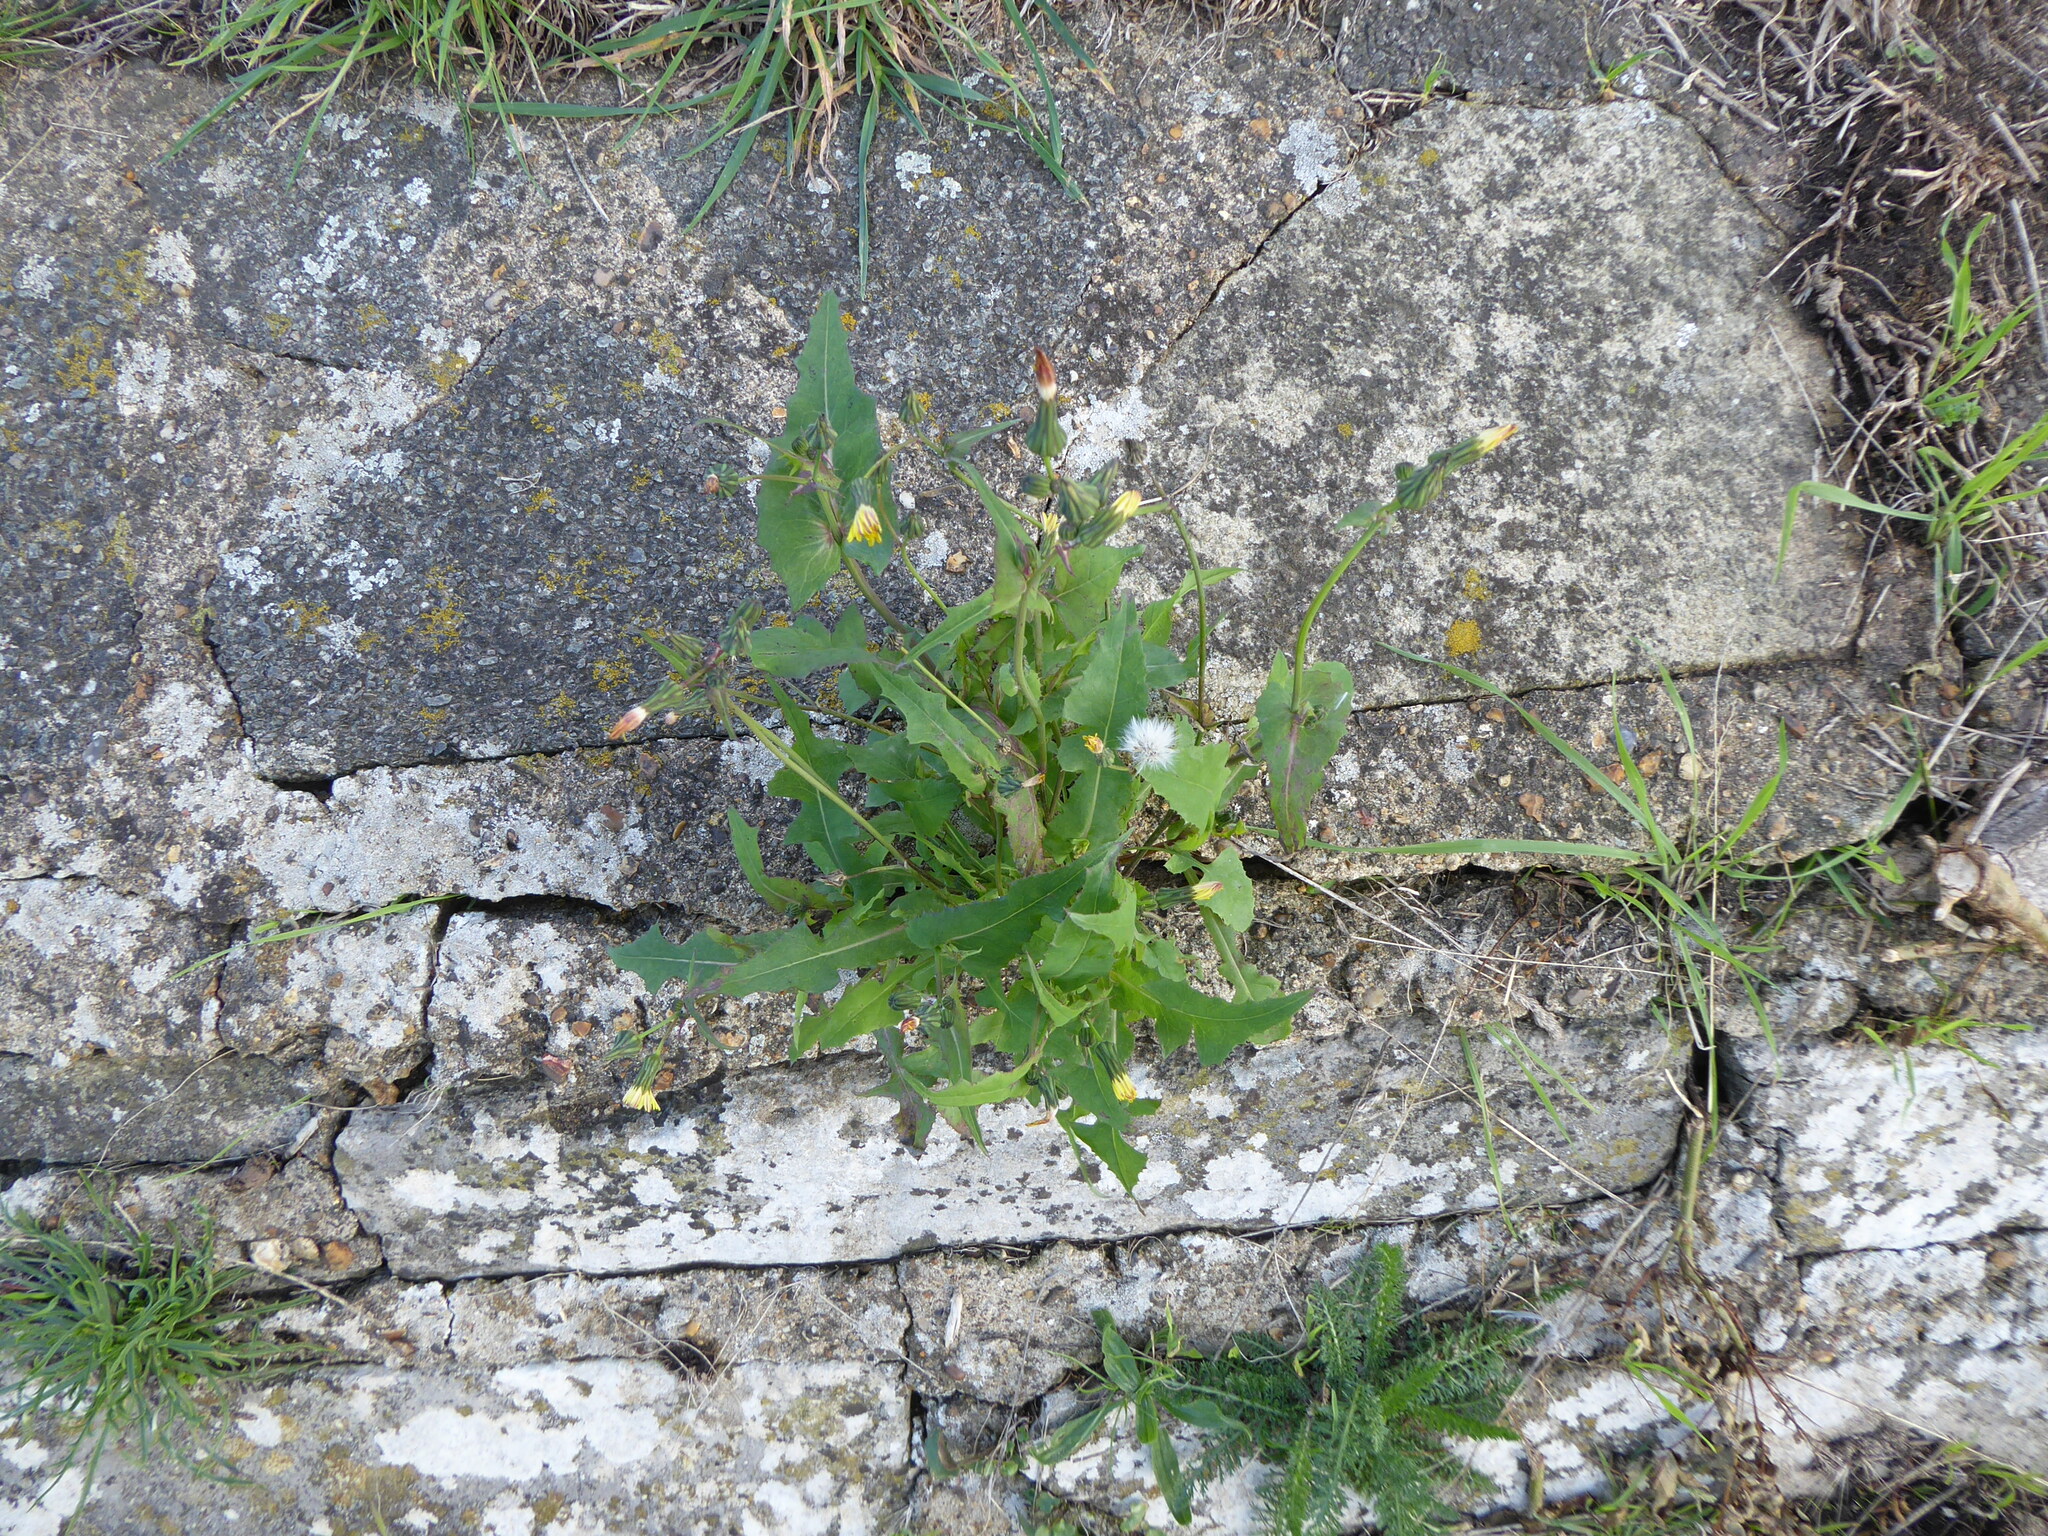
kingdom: Plantae
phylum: Tracheophyta
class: Magnoliopsida
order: Asterales
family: Asteraceae
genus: Sonchus
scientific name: Sonchus oleraceus
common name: Common sowthistle
